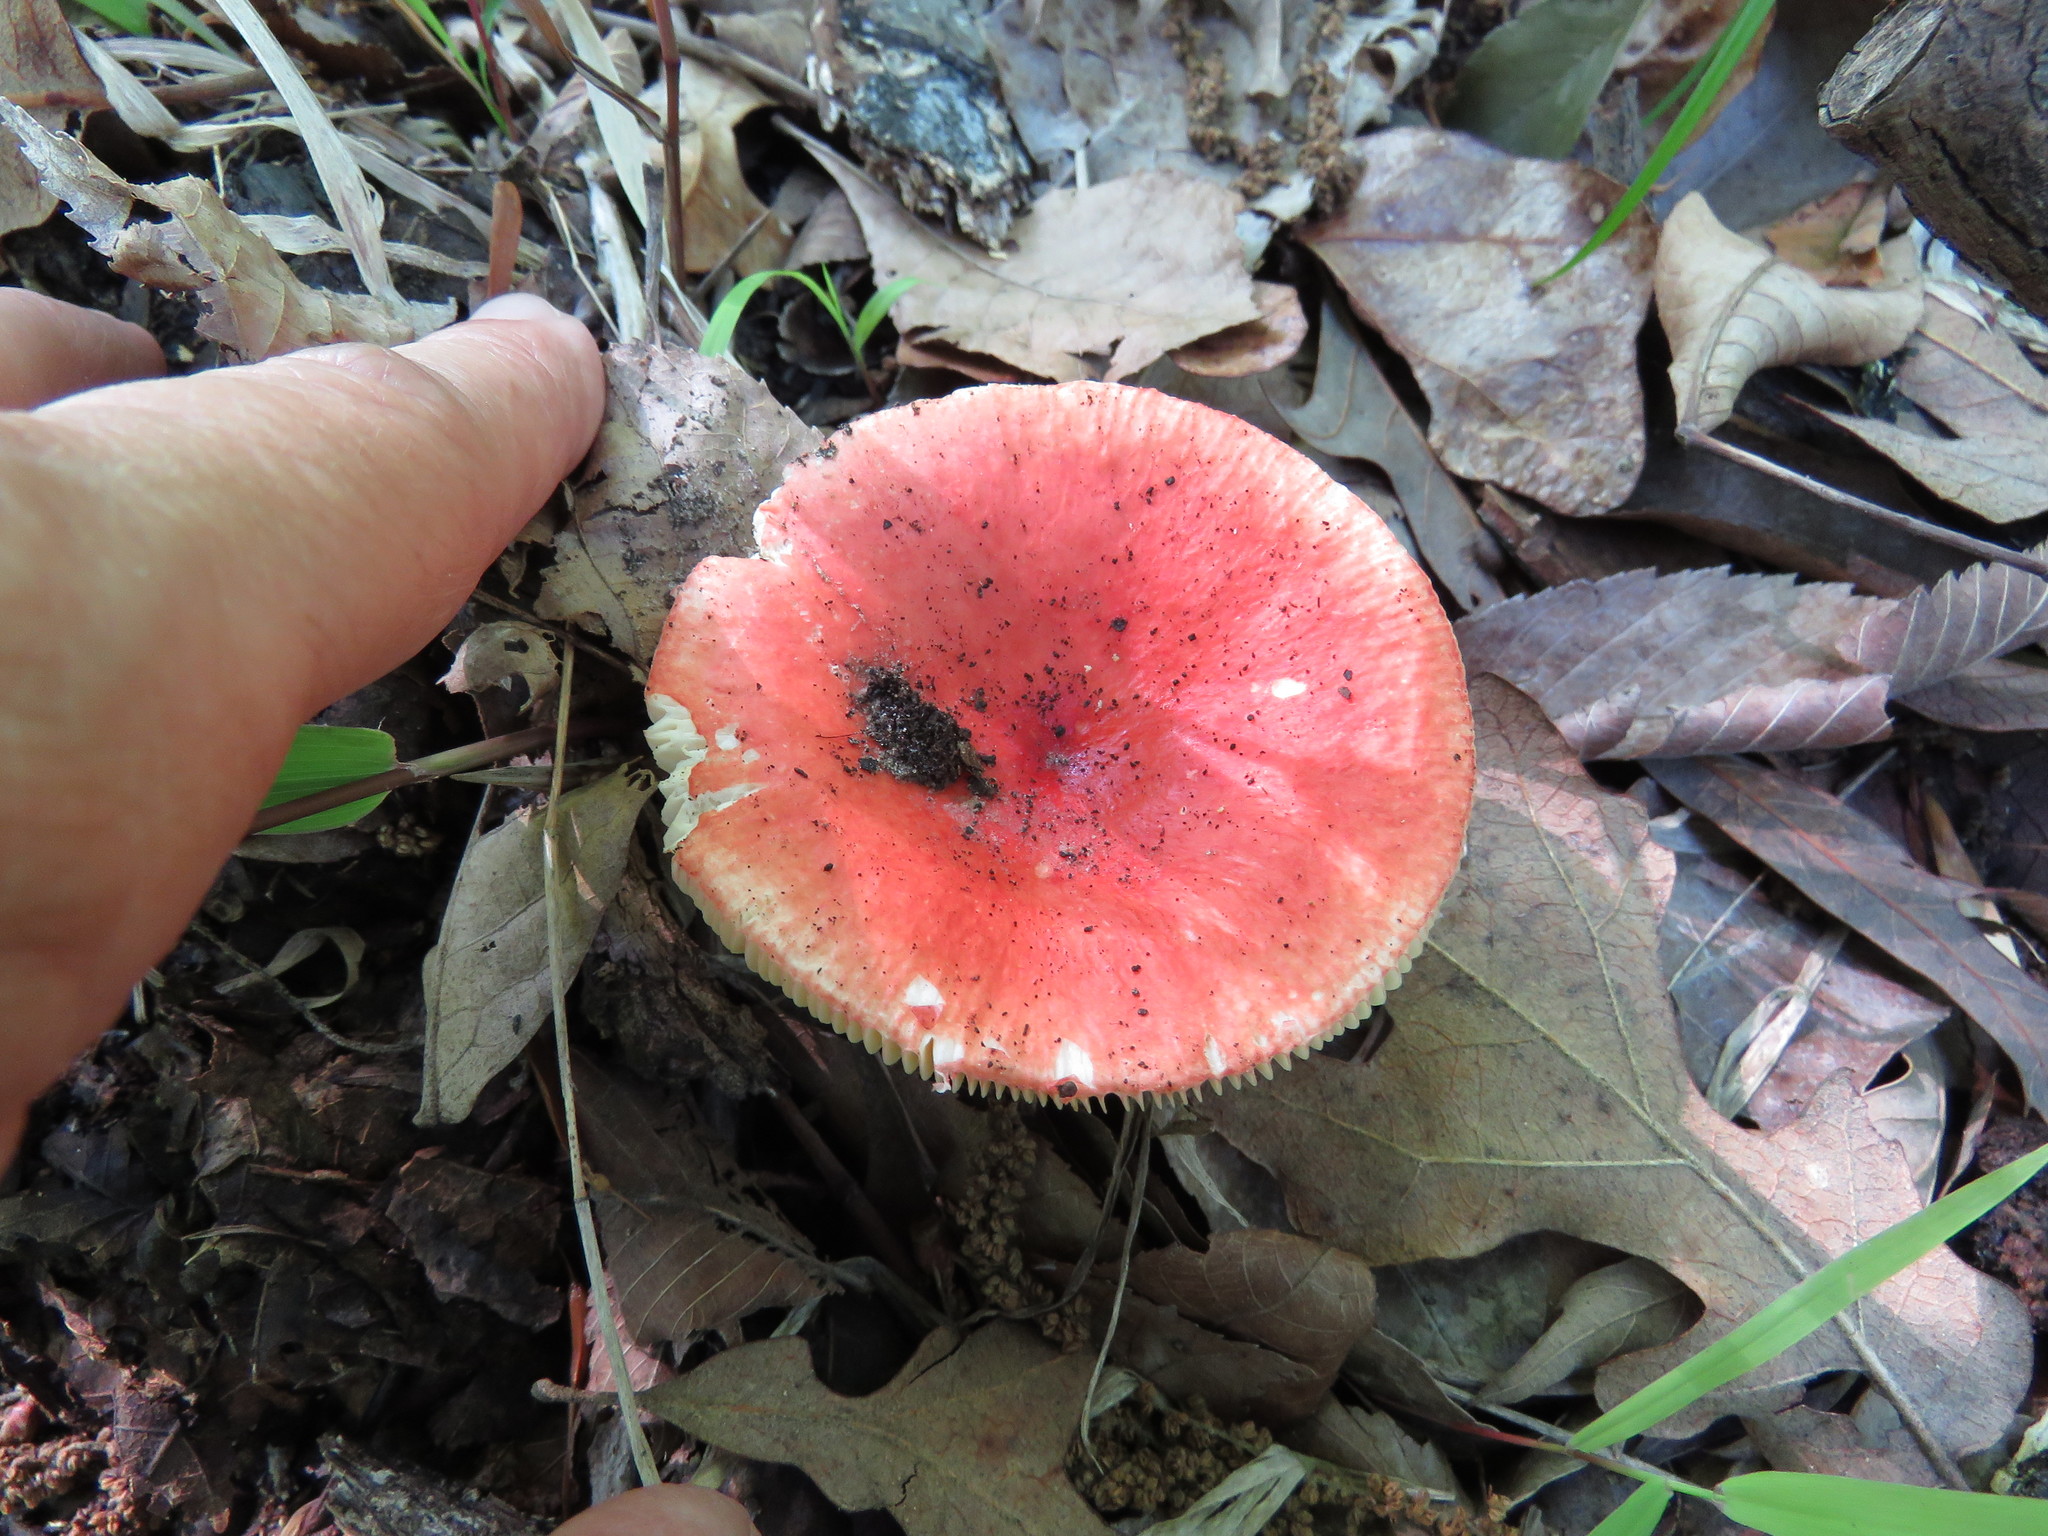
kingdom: Fungi
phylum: Basidiomycota
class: Agaricomycetes
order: Russulales
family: Russulaceae
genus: Russula
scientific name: Russula
